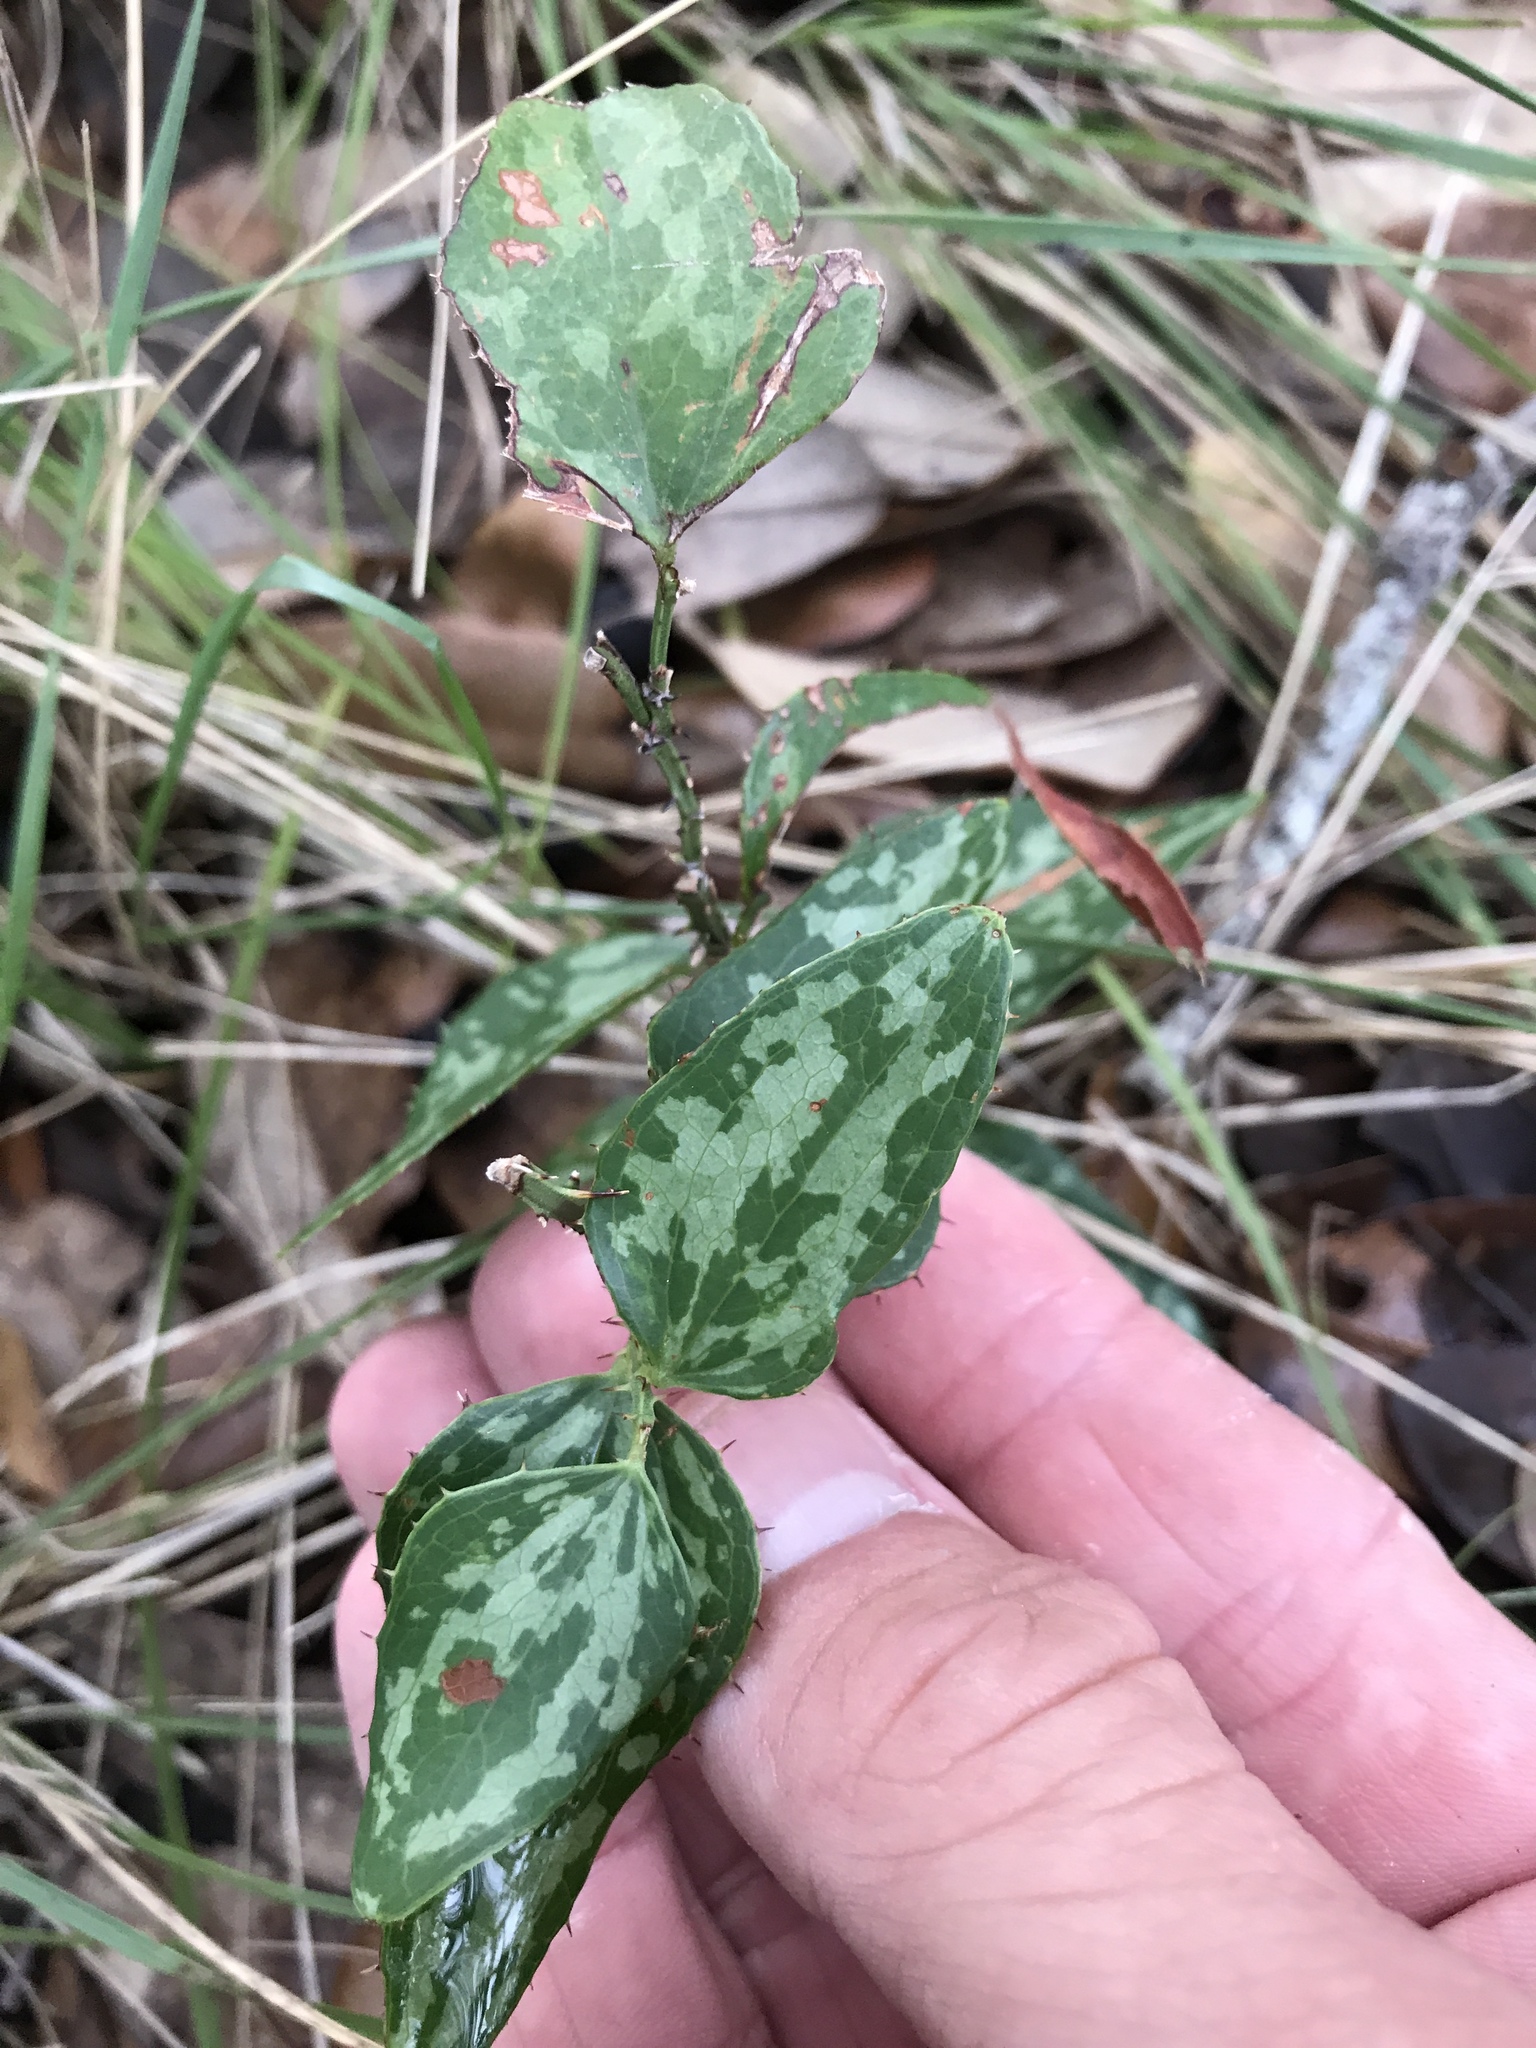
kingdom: Plantae
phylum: Tracheophyta
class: Liliopsida
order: Liliales
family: Smilacaceae
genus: Smilax
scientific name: Smilax bona-nox
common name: Catbrier
